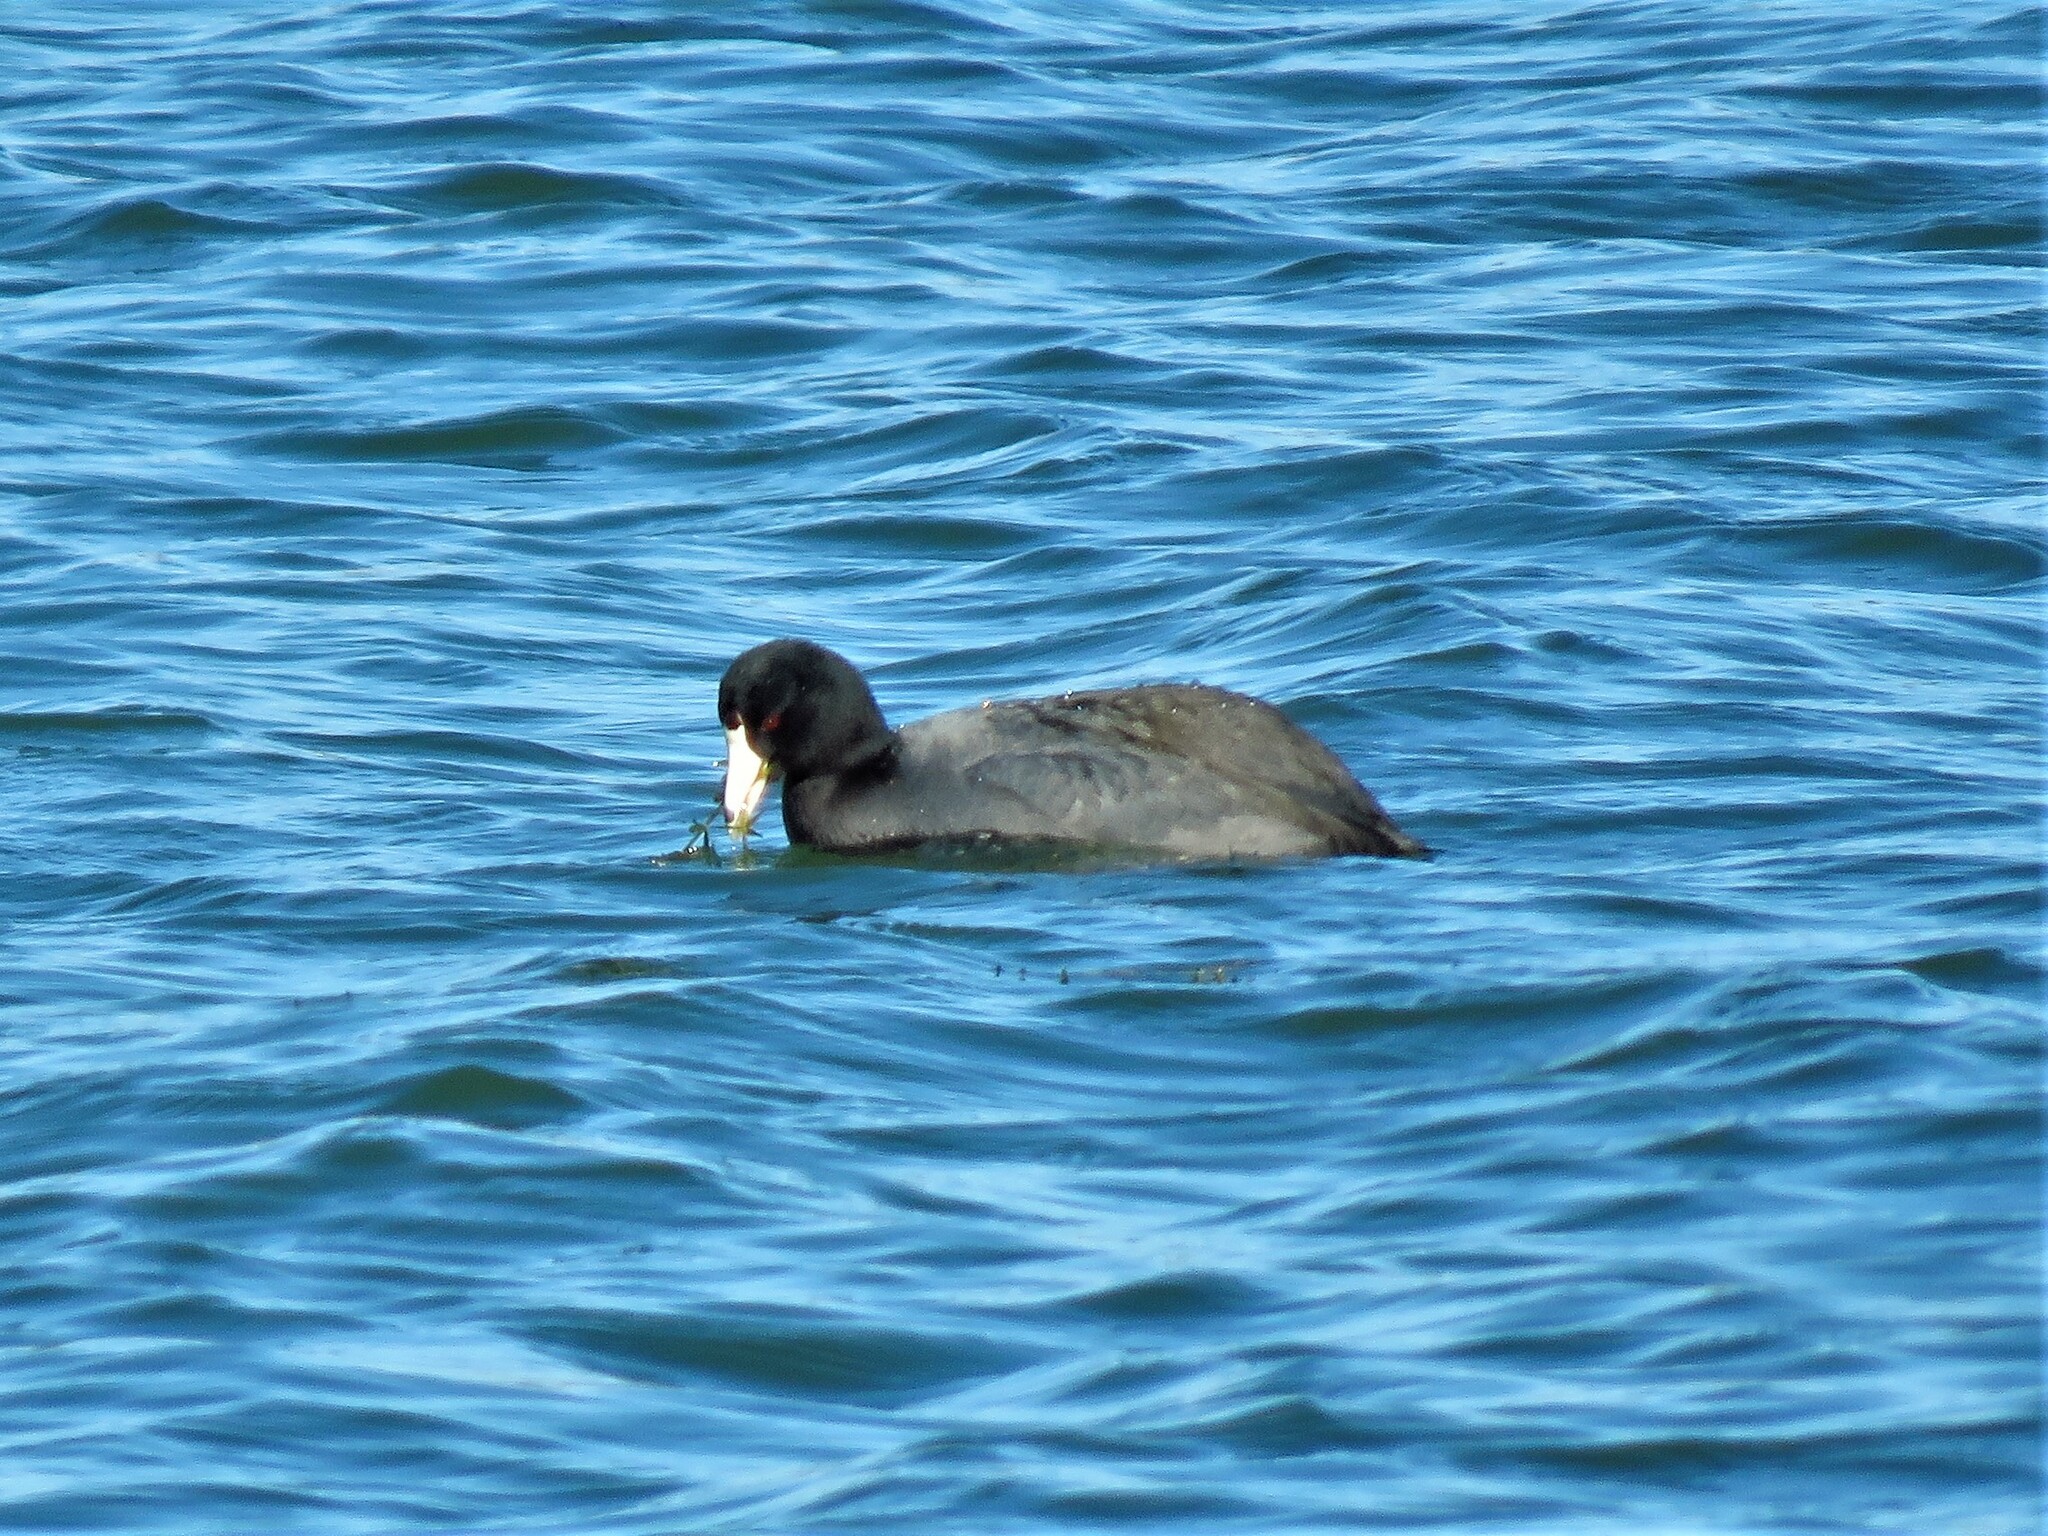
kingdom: Animalia
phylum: Chordata
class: Aves
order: Gruiformes
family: Rallidae
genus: Fulica
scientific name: Fulica americana
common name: American coot
